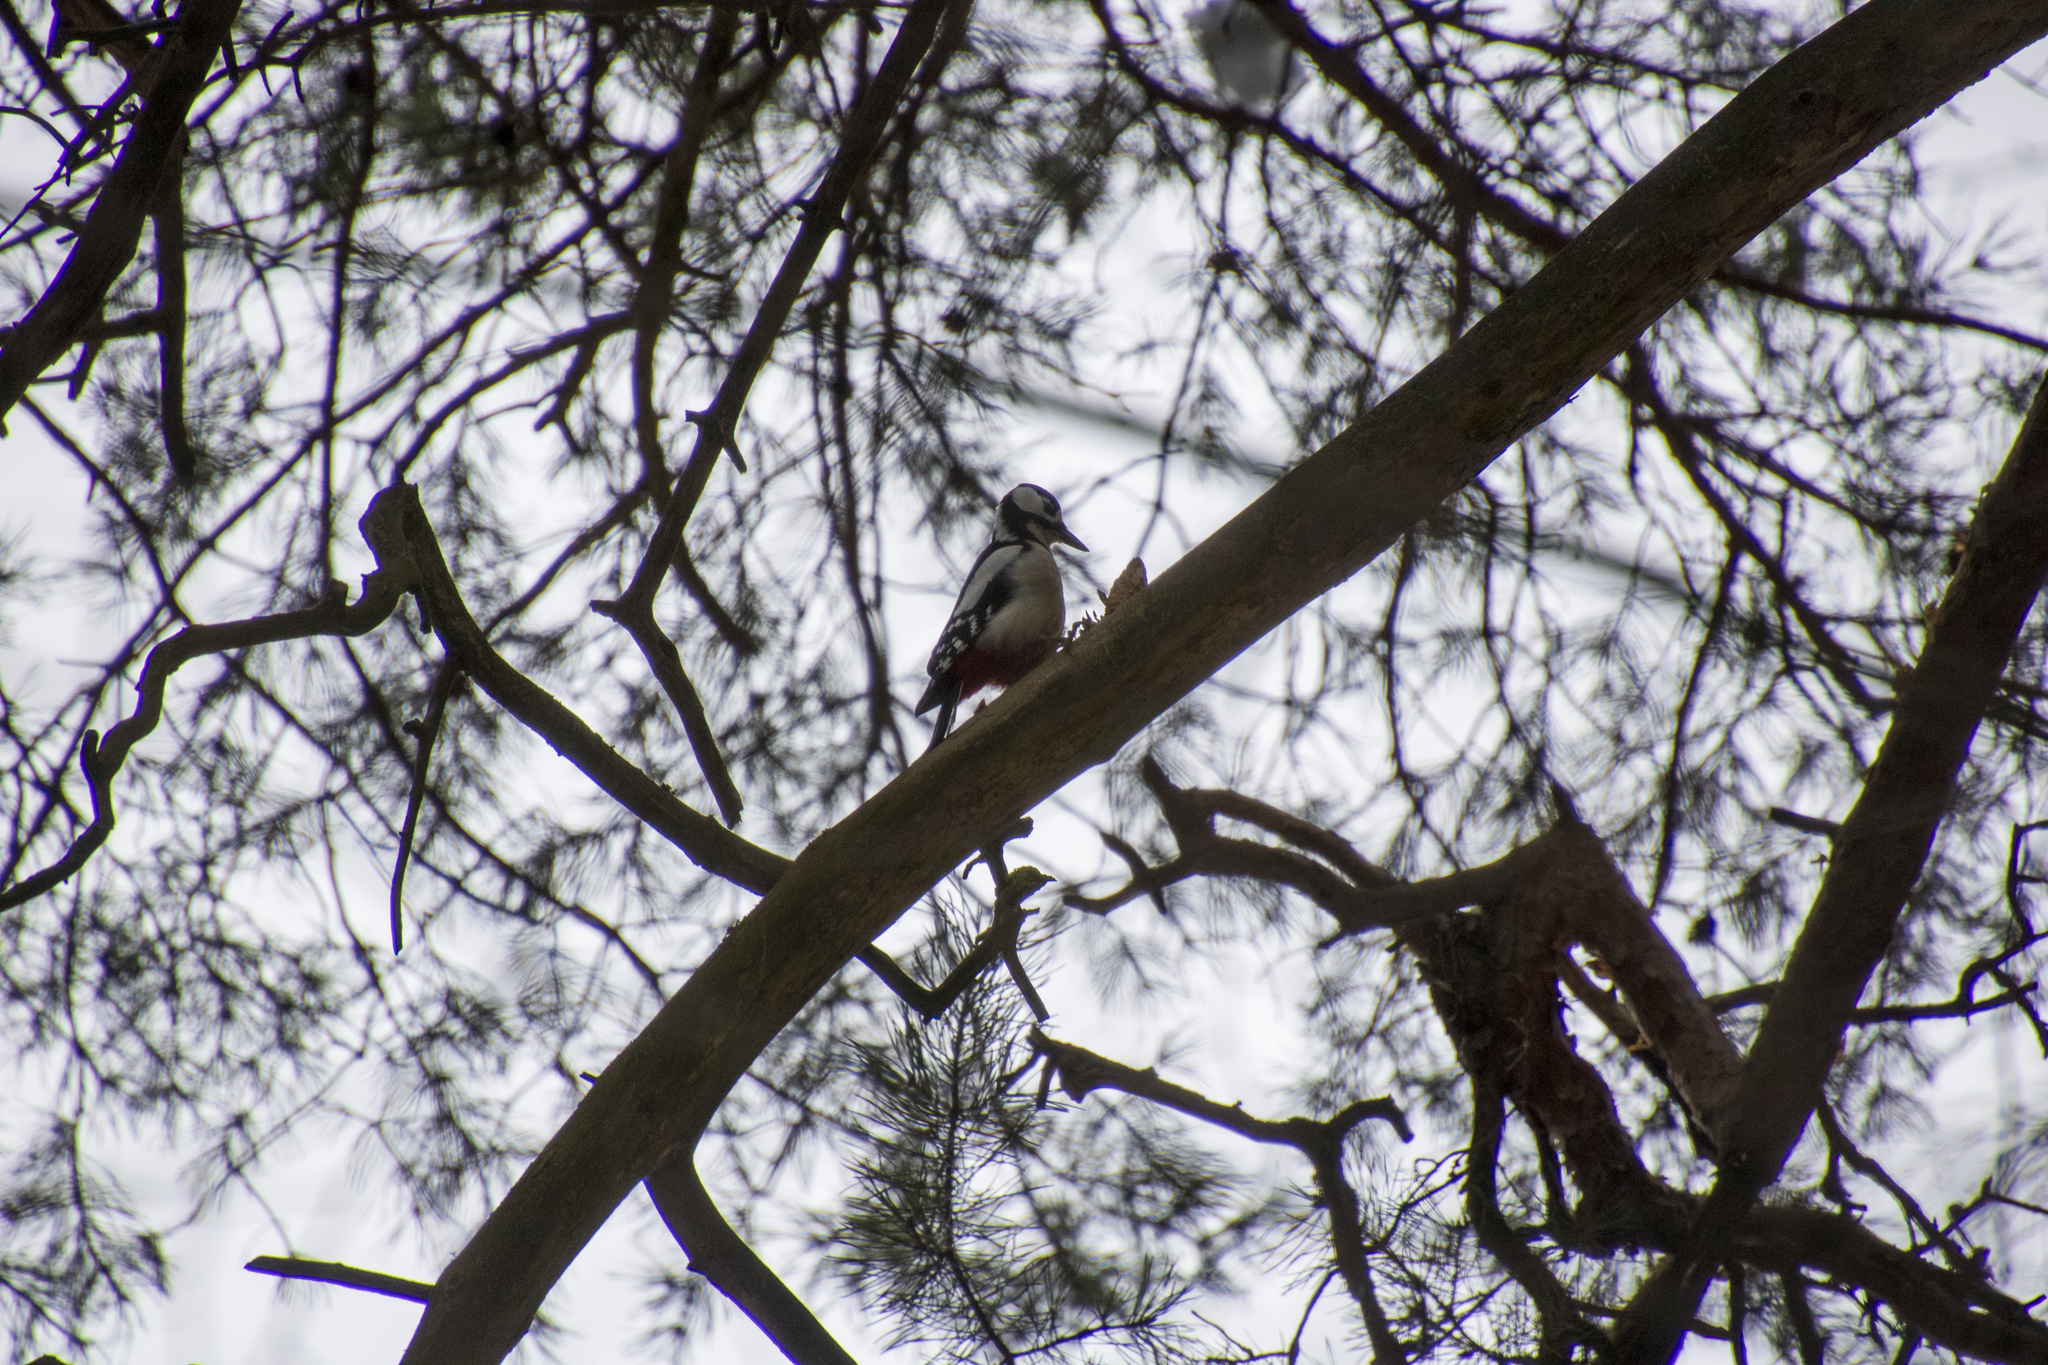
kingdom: Animalia
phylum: Chordata
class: Aves
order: Piciformes
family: Picidae
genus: Dendrocopos
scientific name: Dendrocopos major
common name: Great spotted woodpecker
